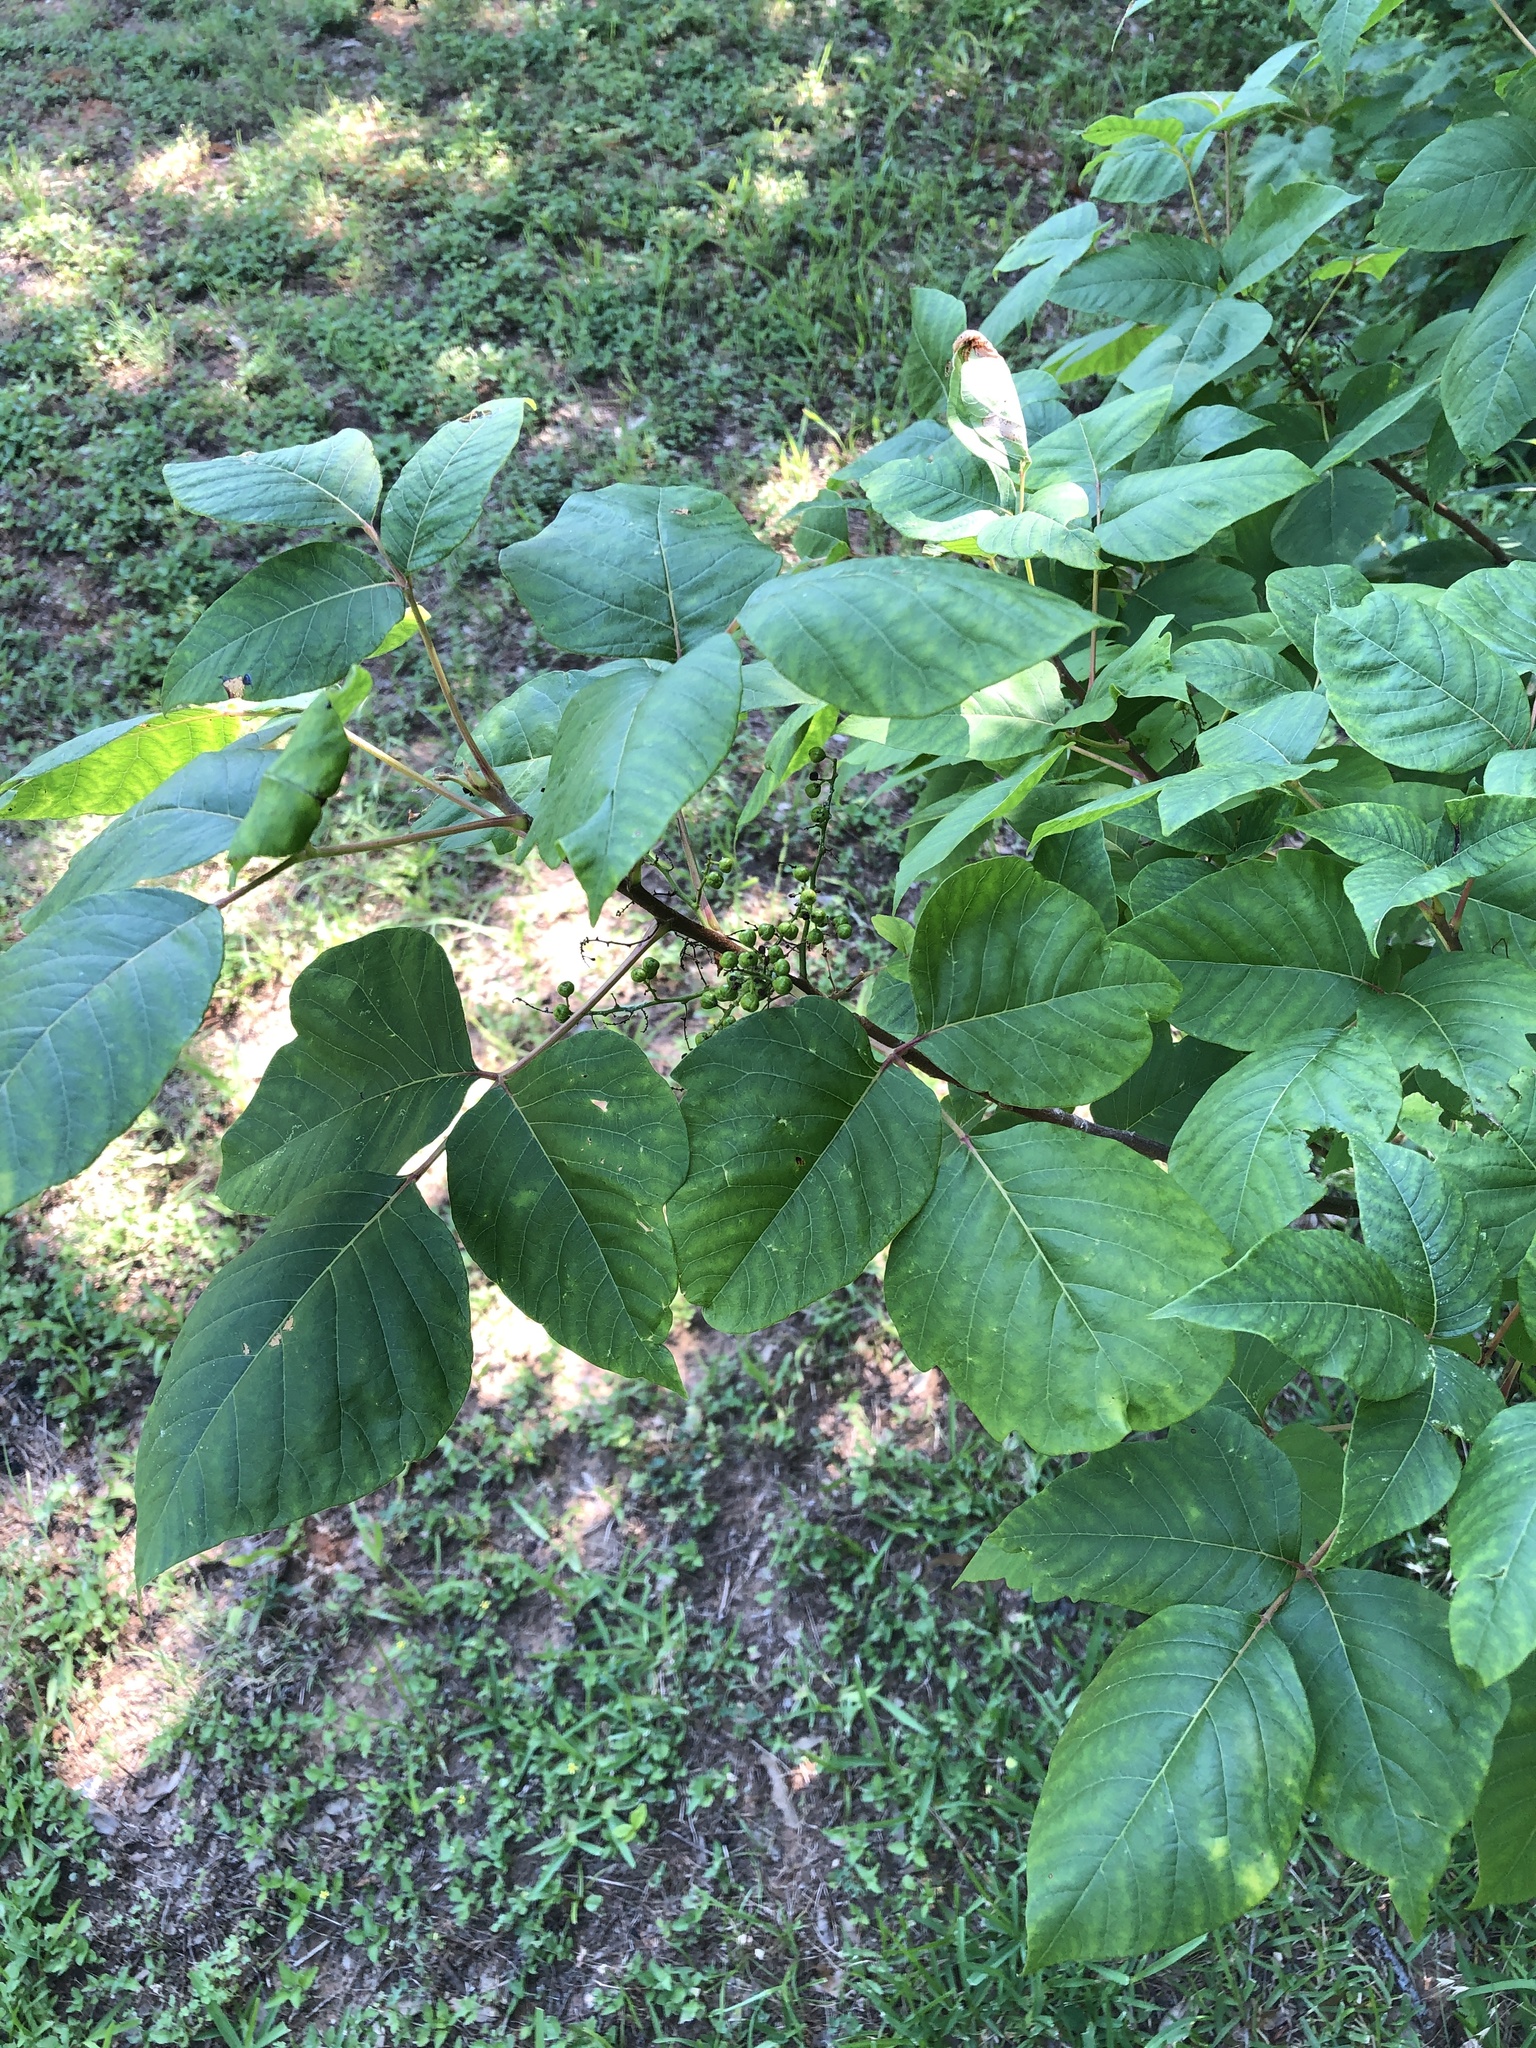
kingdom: Plantae
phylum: Tracheophyta
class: Magnoliopsida
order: Sapindales
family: Anacardiaceae
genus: Toxicodendron
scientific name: Toxicodendron radicans
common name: Poison ivy
